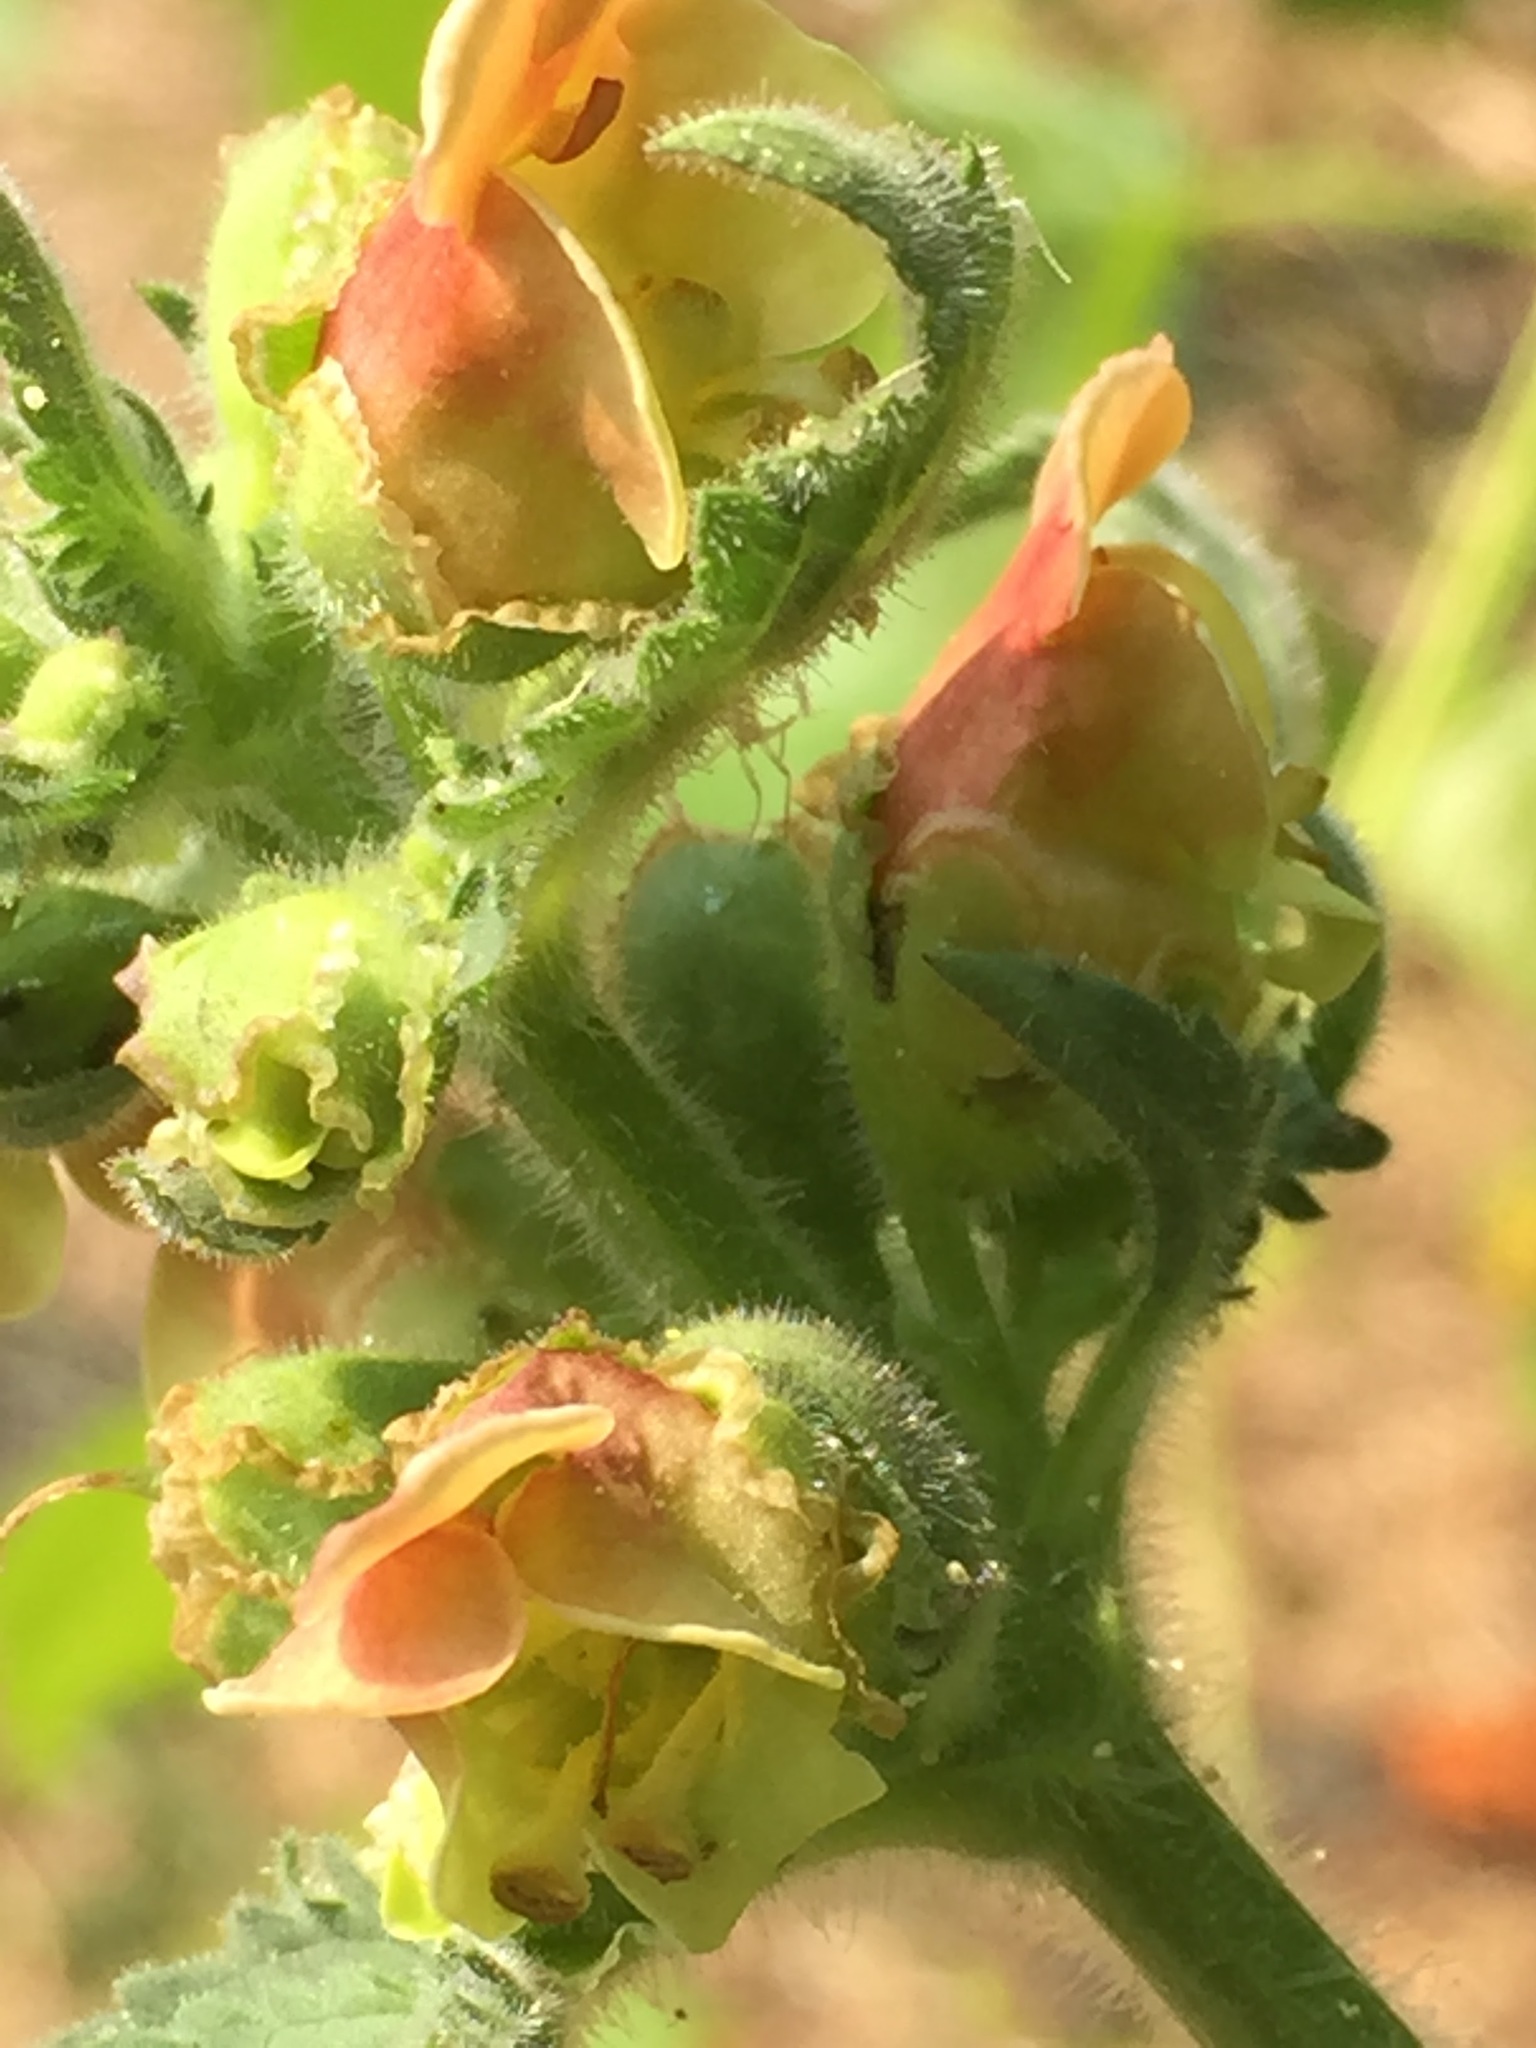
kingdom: Plantae
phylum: Tracheophyta
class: Magnoliopsida
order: Lamiales
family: Scrophulariaceae
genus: Scrophularia
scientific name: Scrophularia grandiflora
